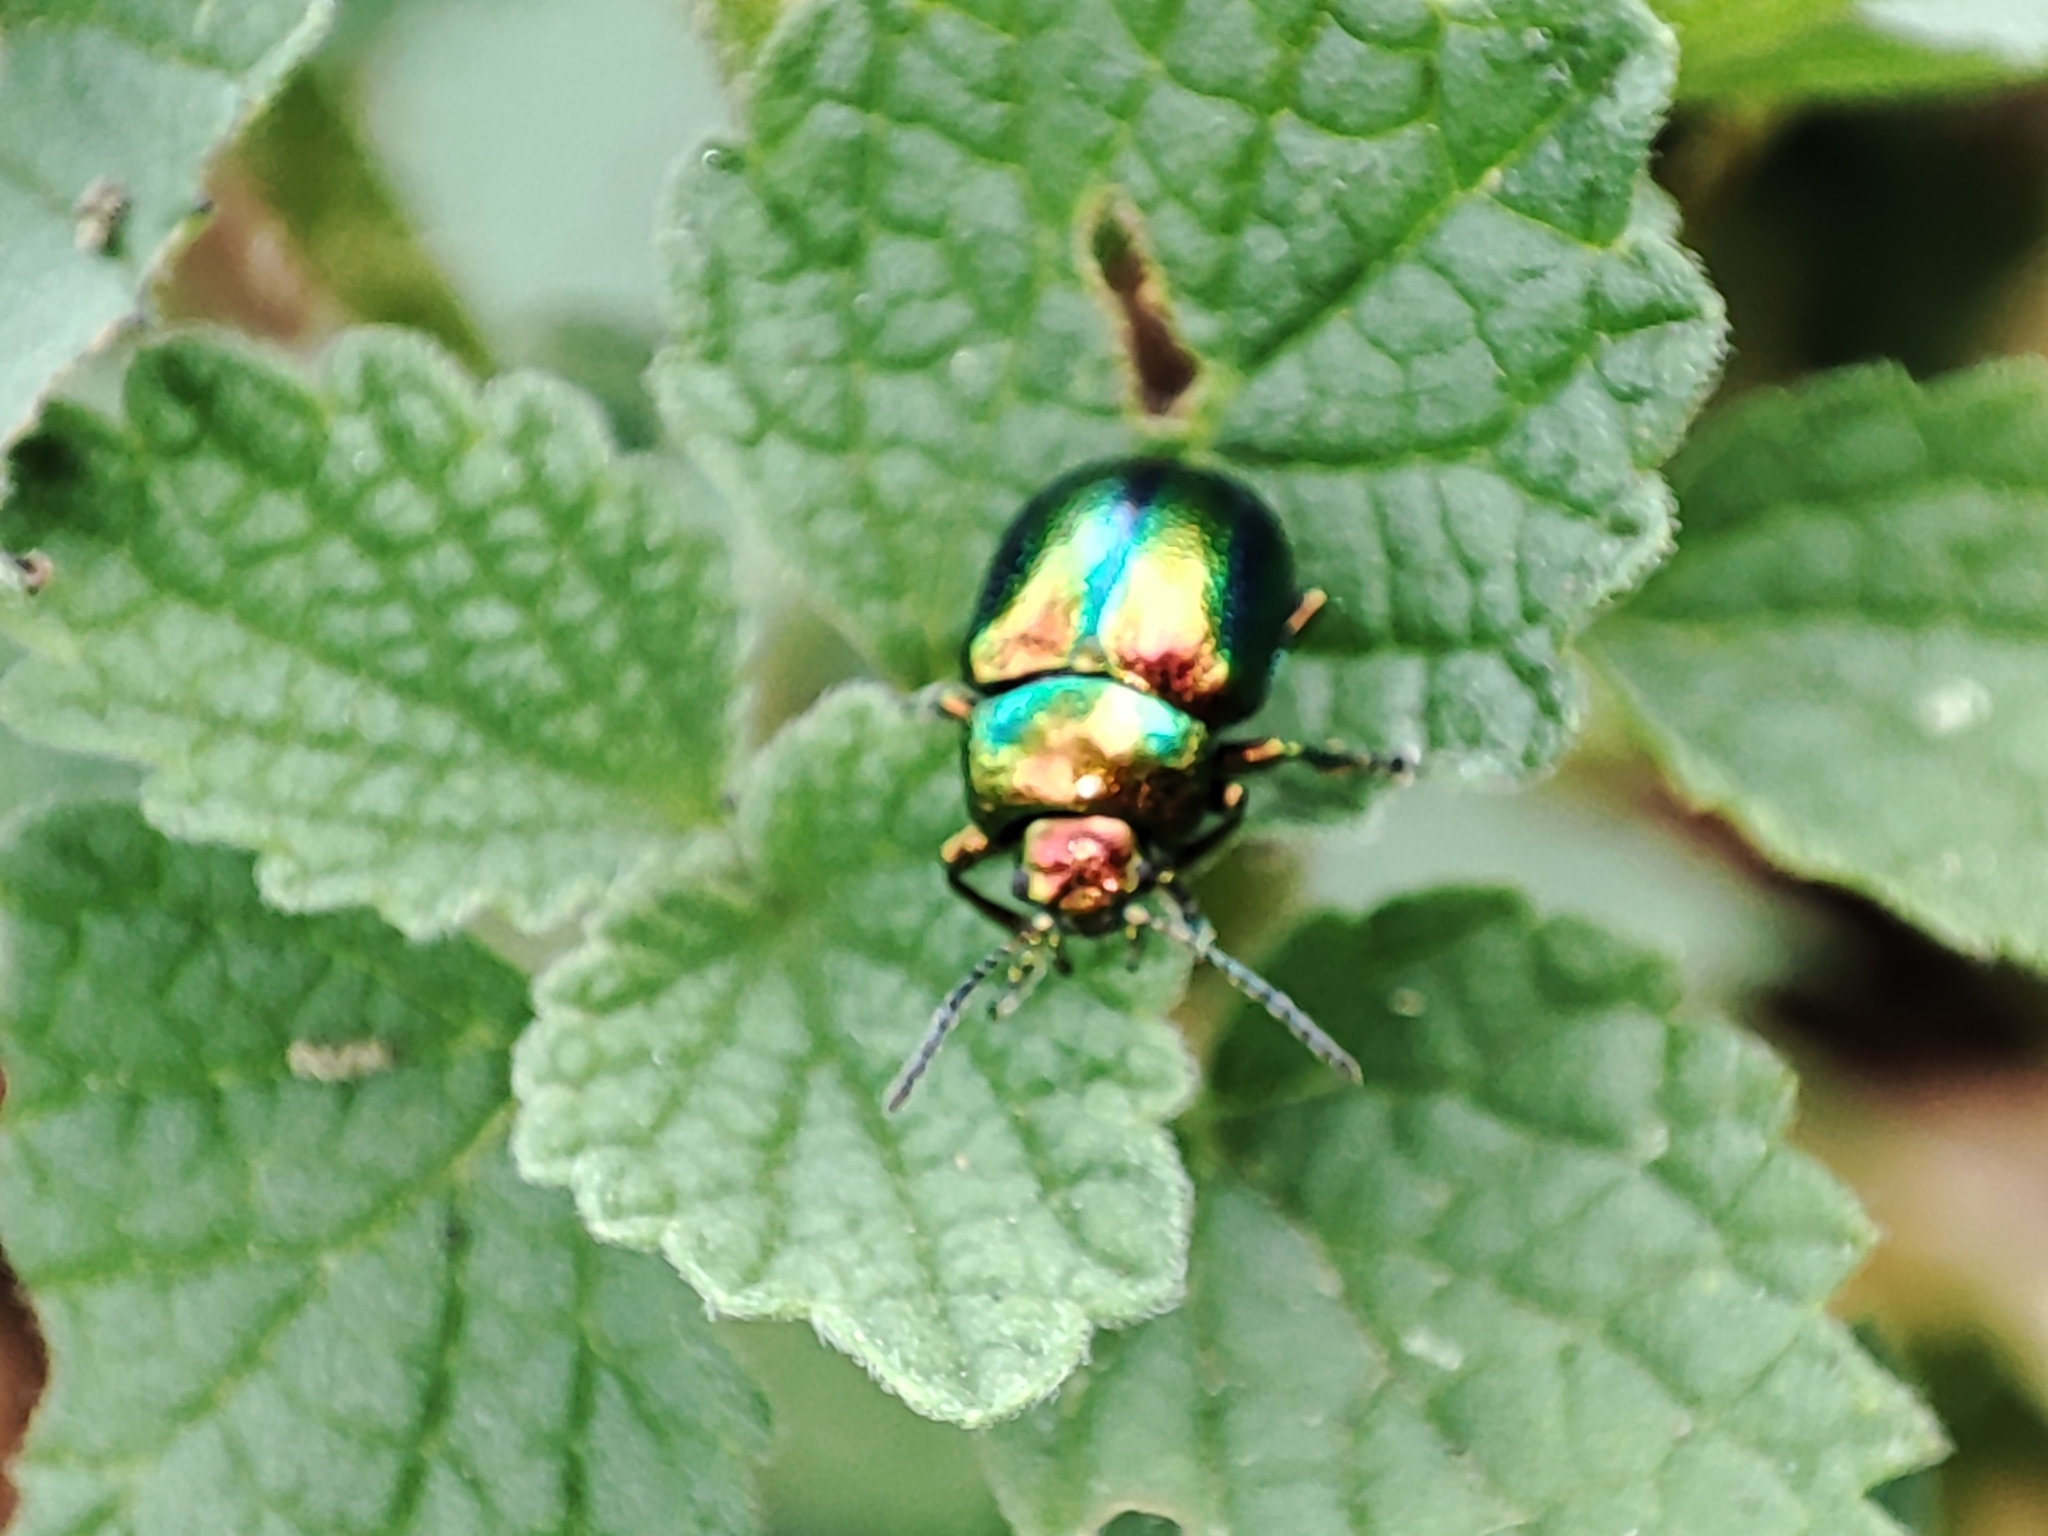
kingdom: Animalia
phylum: Arthropoda
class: Insecta
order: Coleoptera
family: Chrysomelidae
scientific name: Chrysomelidae
